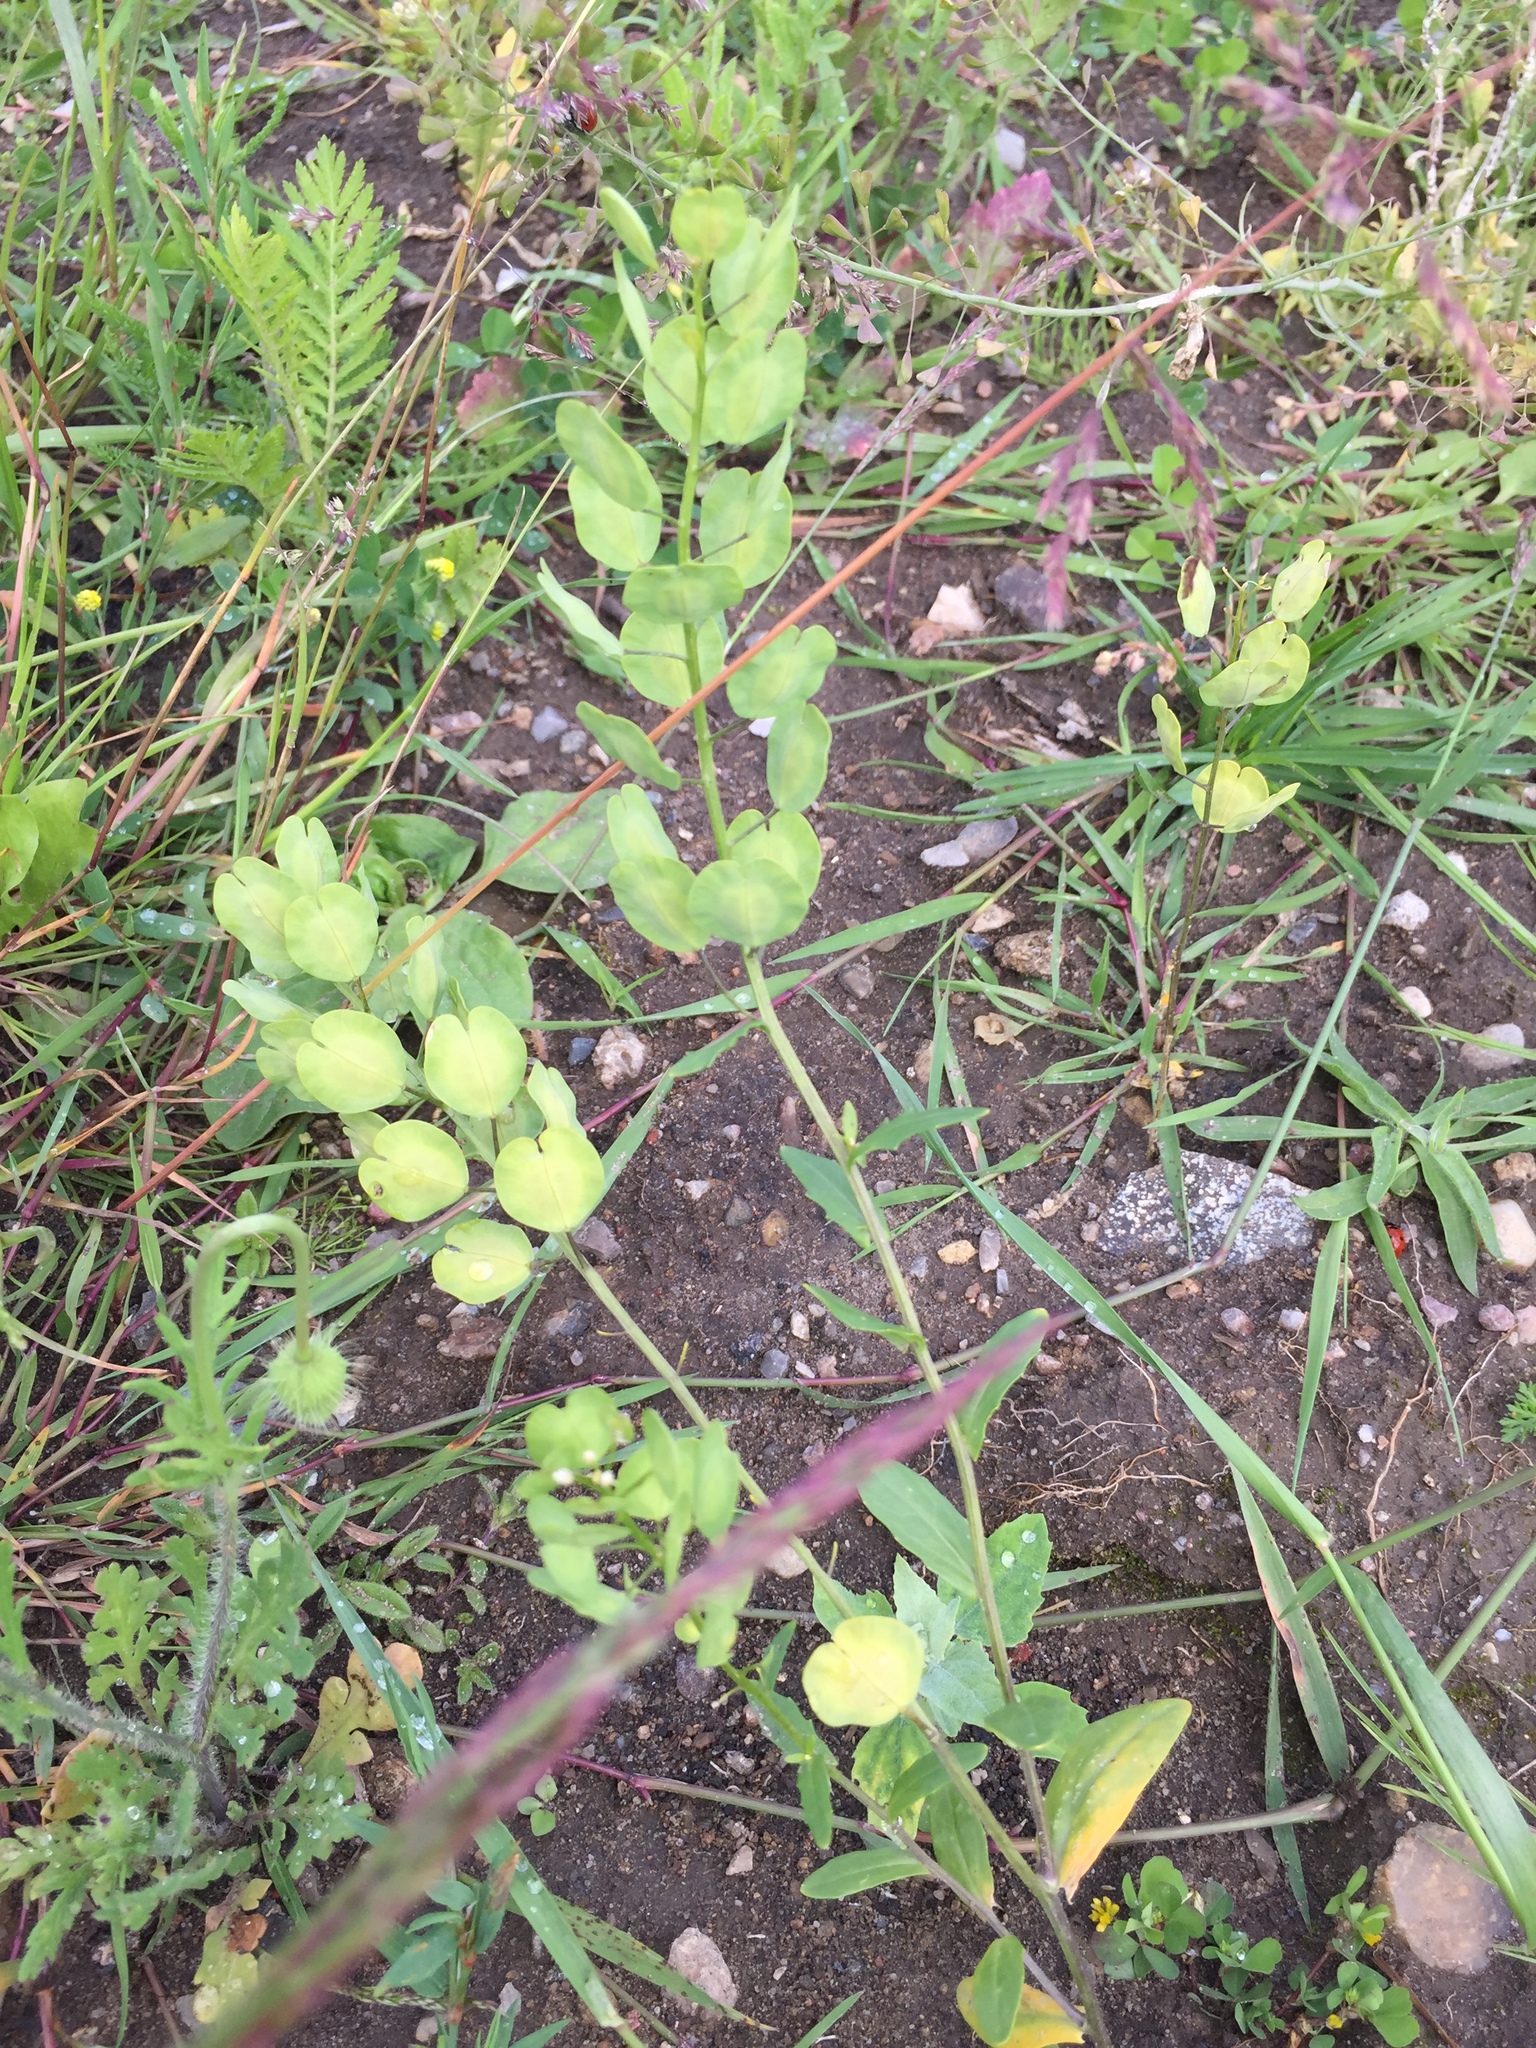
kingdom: Plantae
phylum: Tracheophyta
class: Magnoliopsida
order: Brassicales
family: Brassicaceae
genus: Thlaspi
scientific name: Thlaspi arvense
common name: Field pennycress
